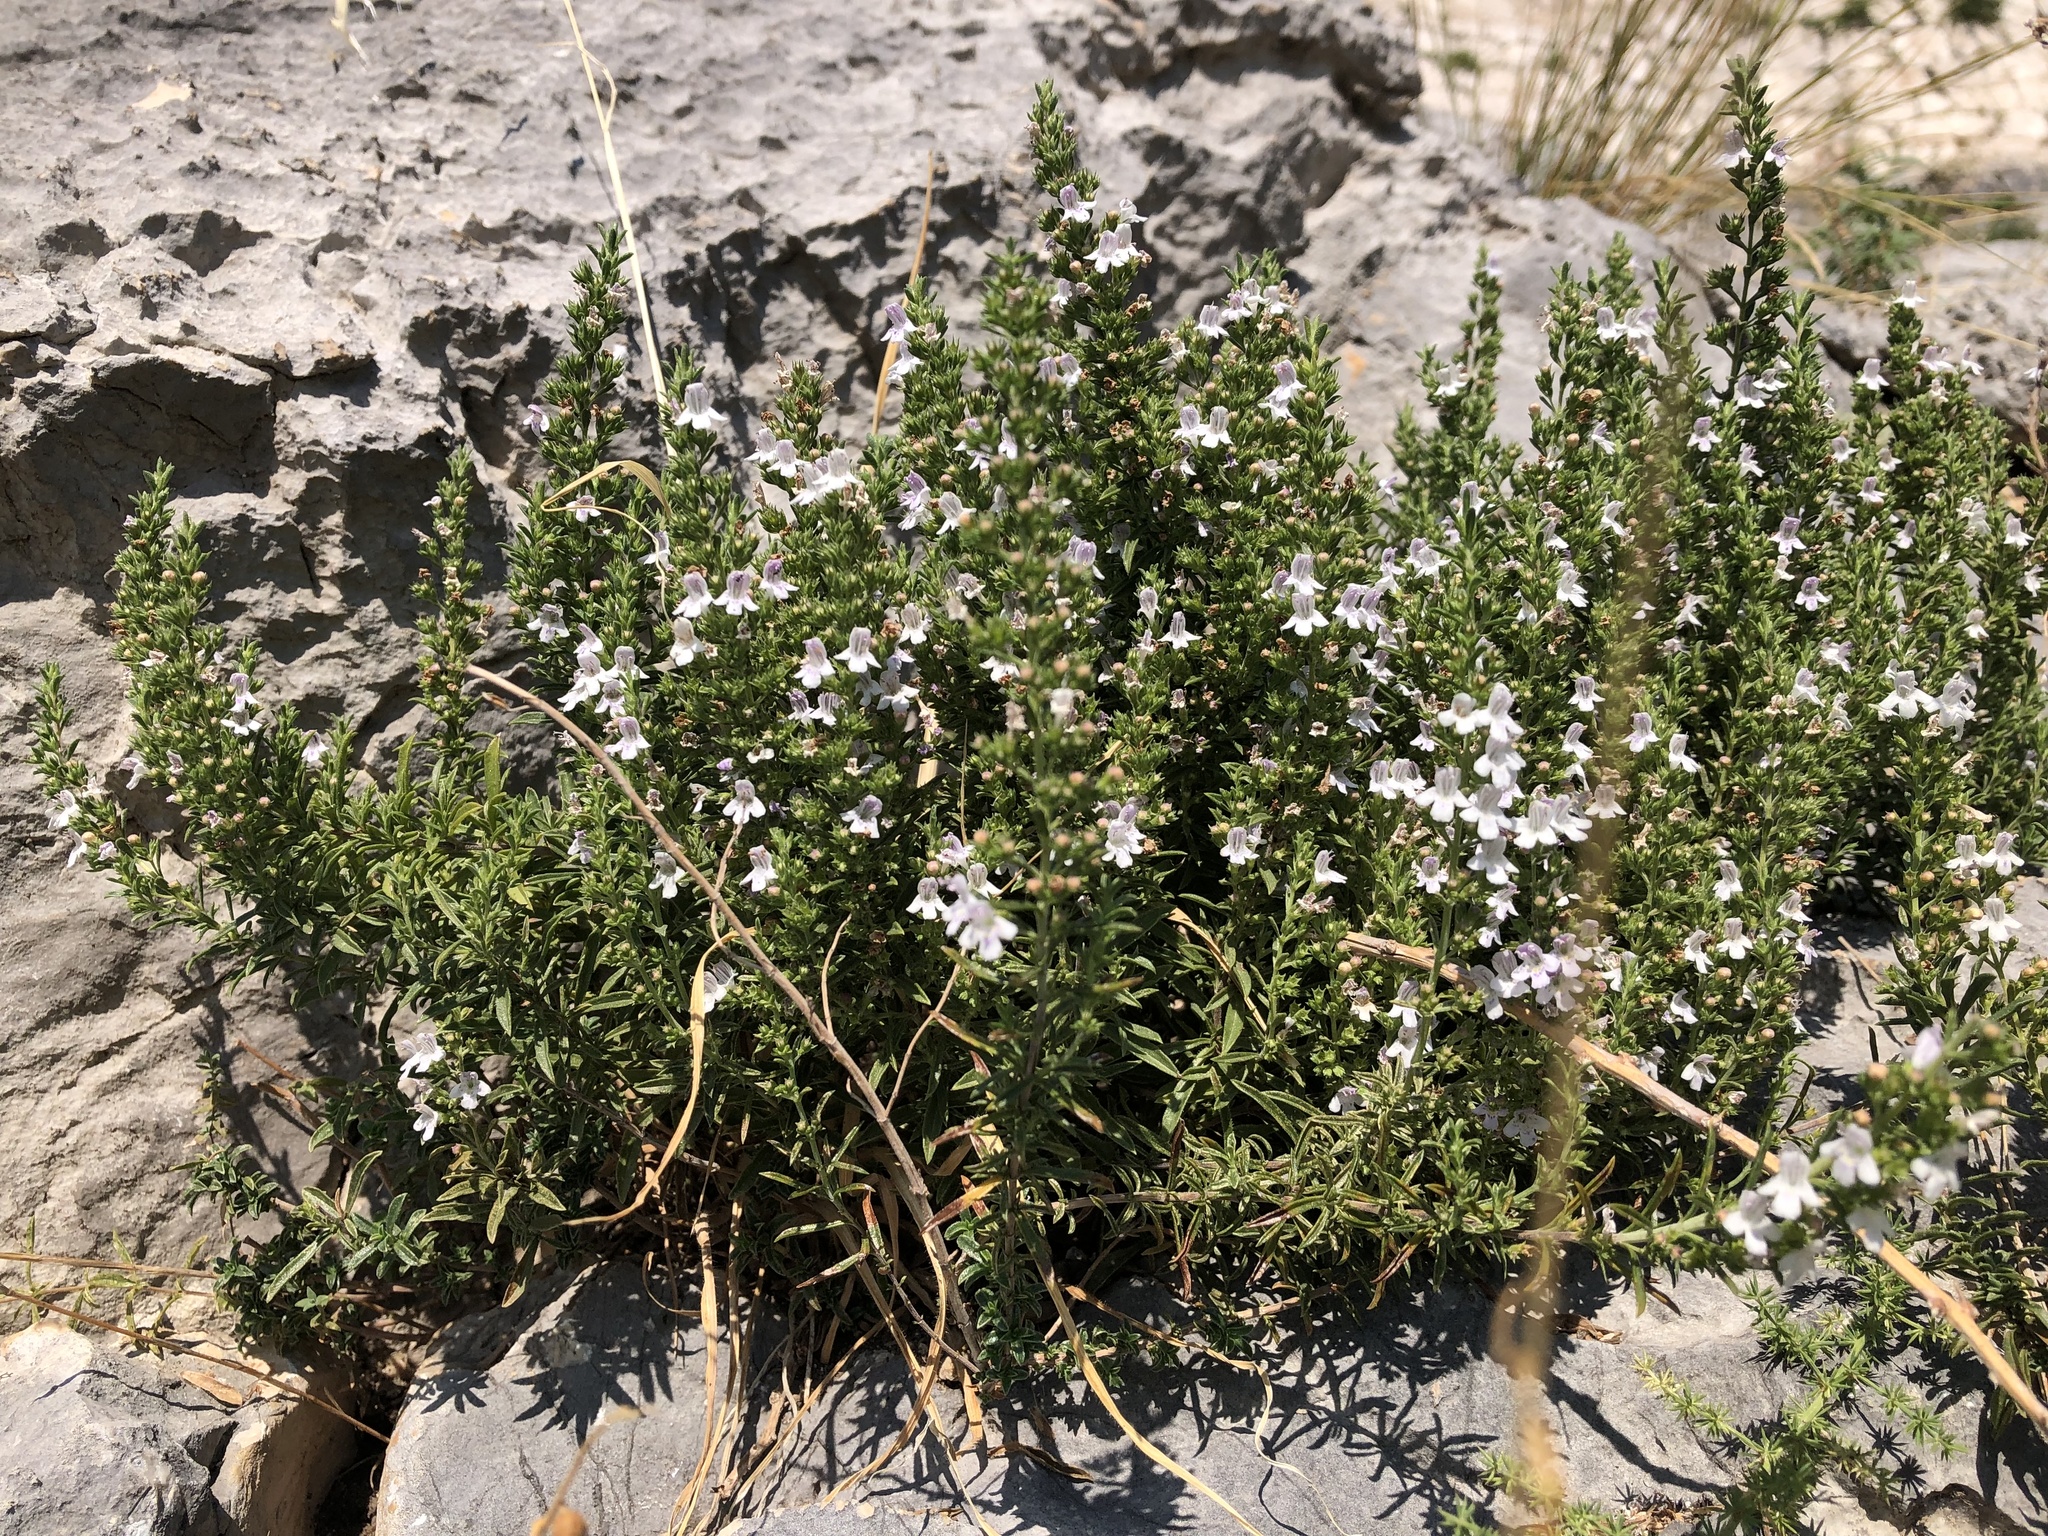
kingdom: Plantae
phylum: Tracheophyta
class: Magnoliopsida
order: Lamiales
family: Lamiaceae
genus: Satureja
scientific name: Satureja montana
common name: Winter savory
